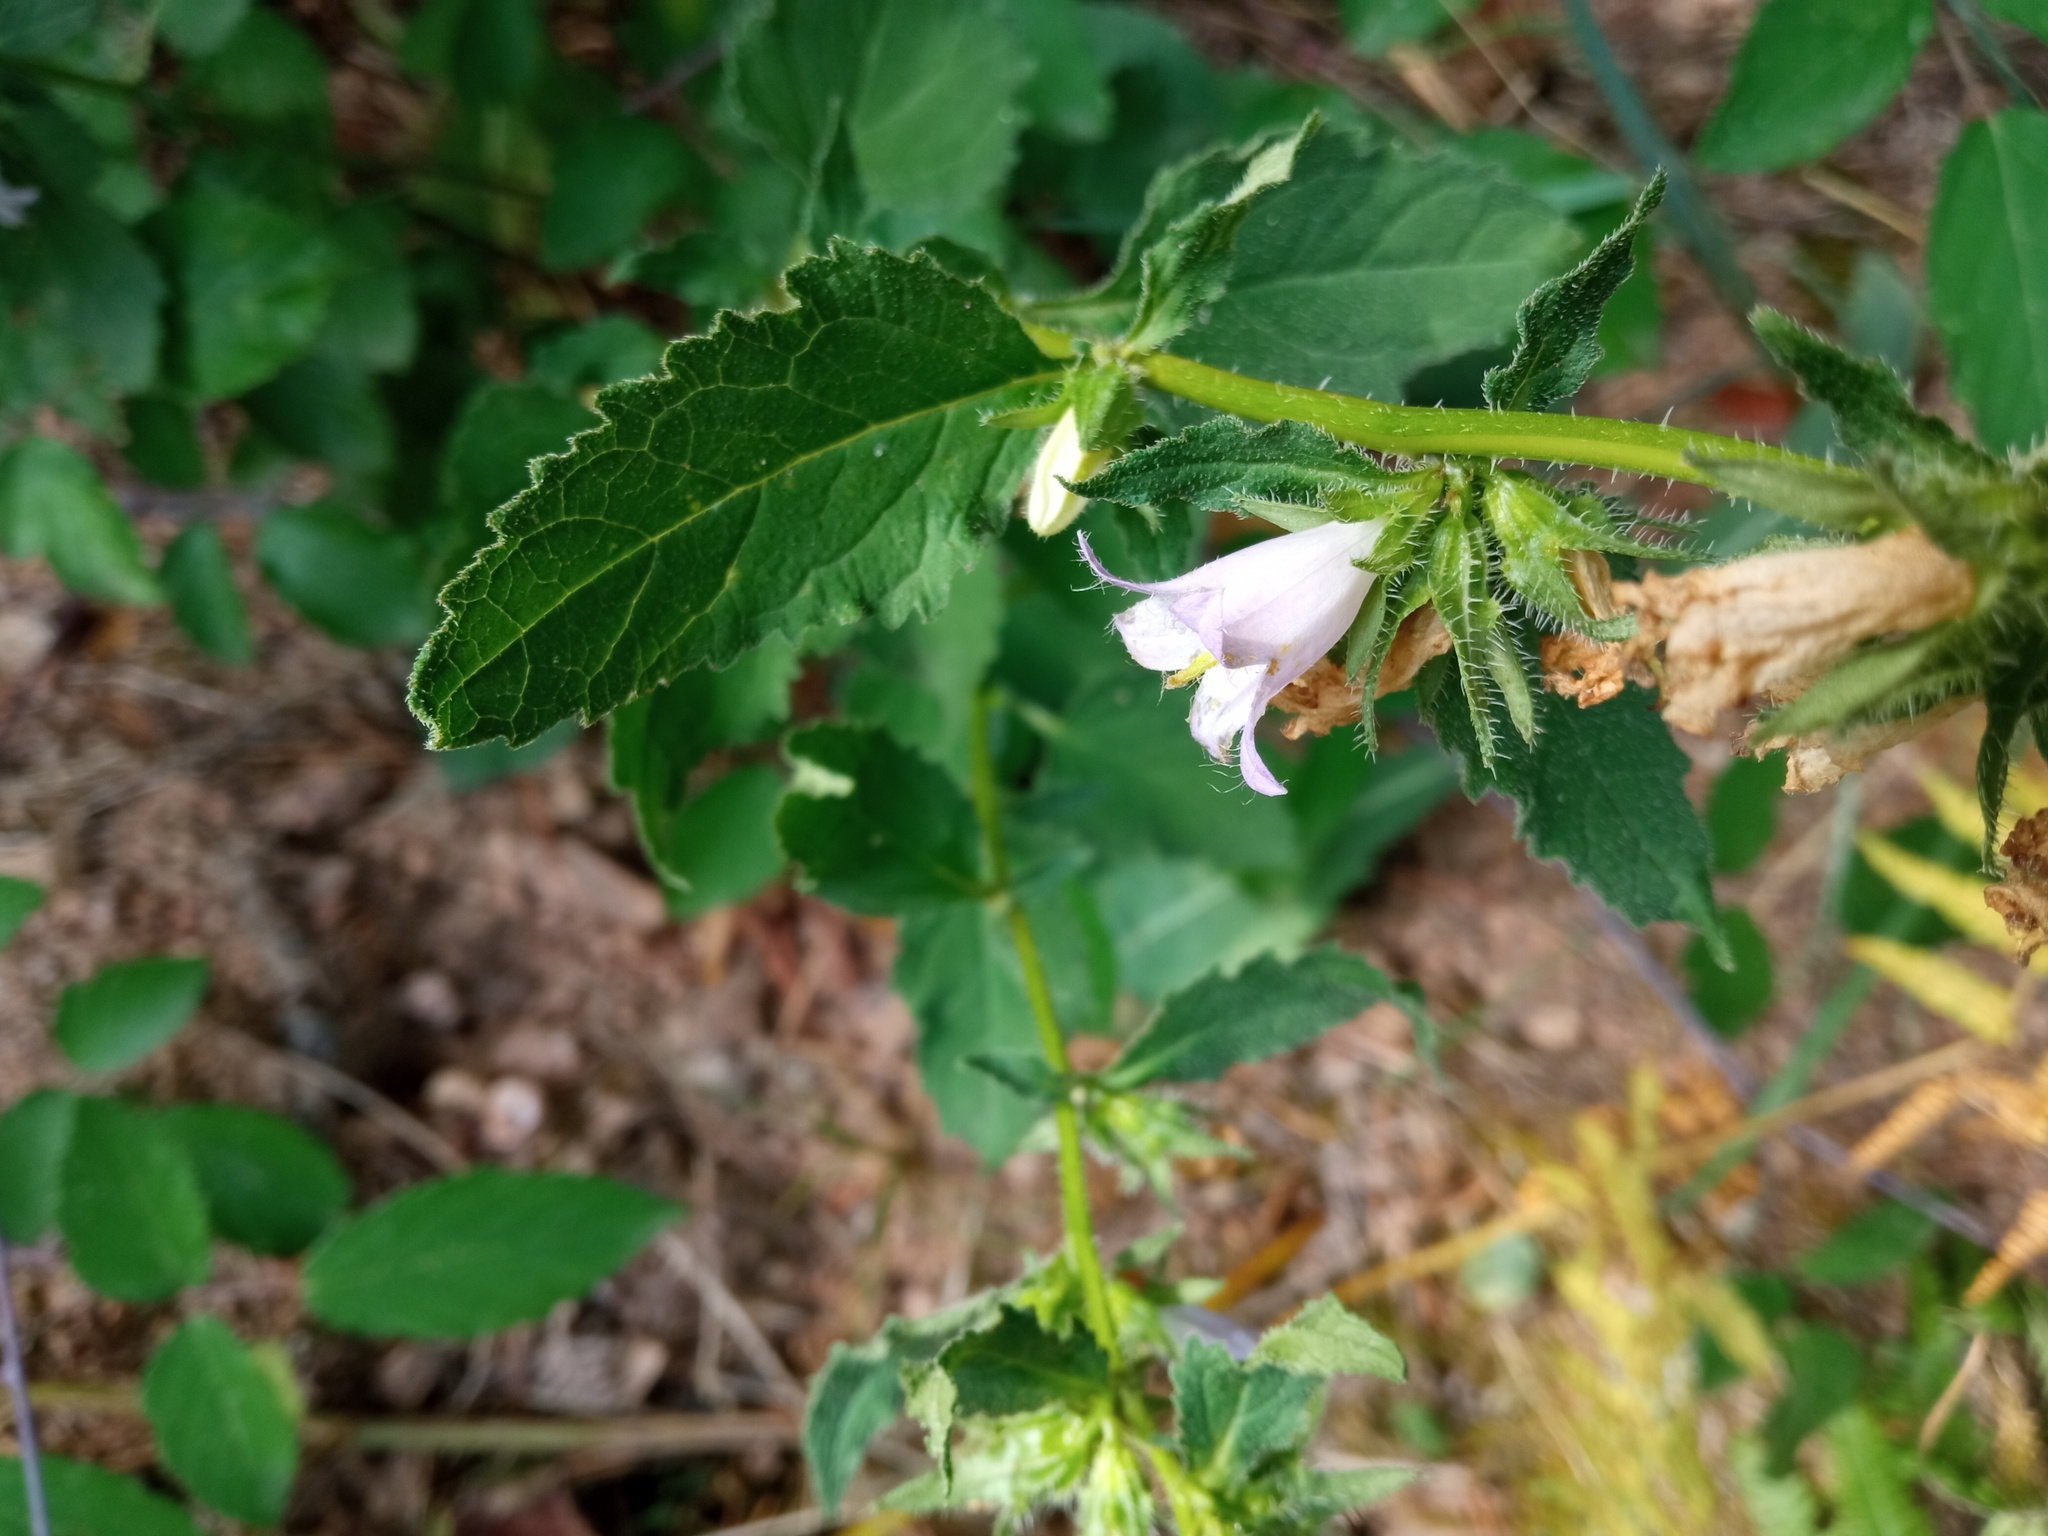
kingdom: Plantae
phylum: Tracheophyta
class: Magnoliopsida
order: Asterales
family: Campanulaceae
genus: Campanula
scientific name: Campanula trachelium
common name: Nettle-leaved bellflower
